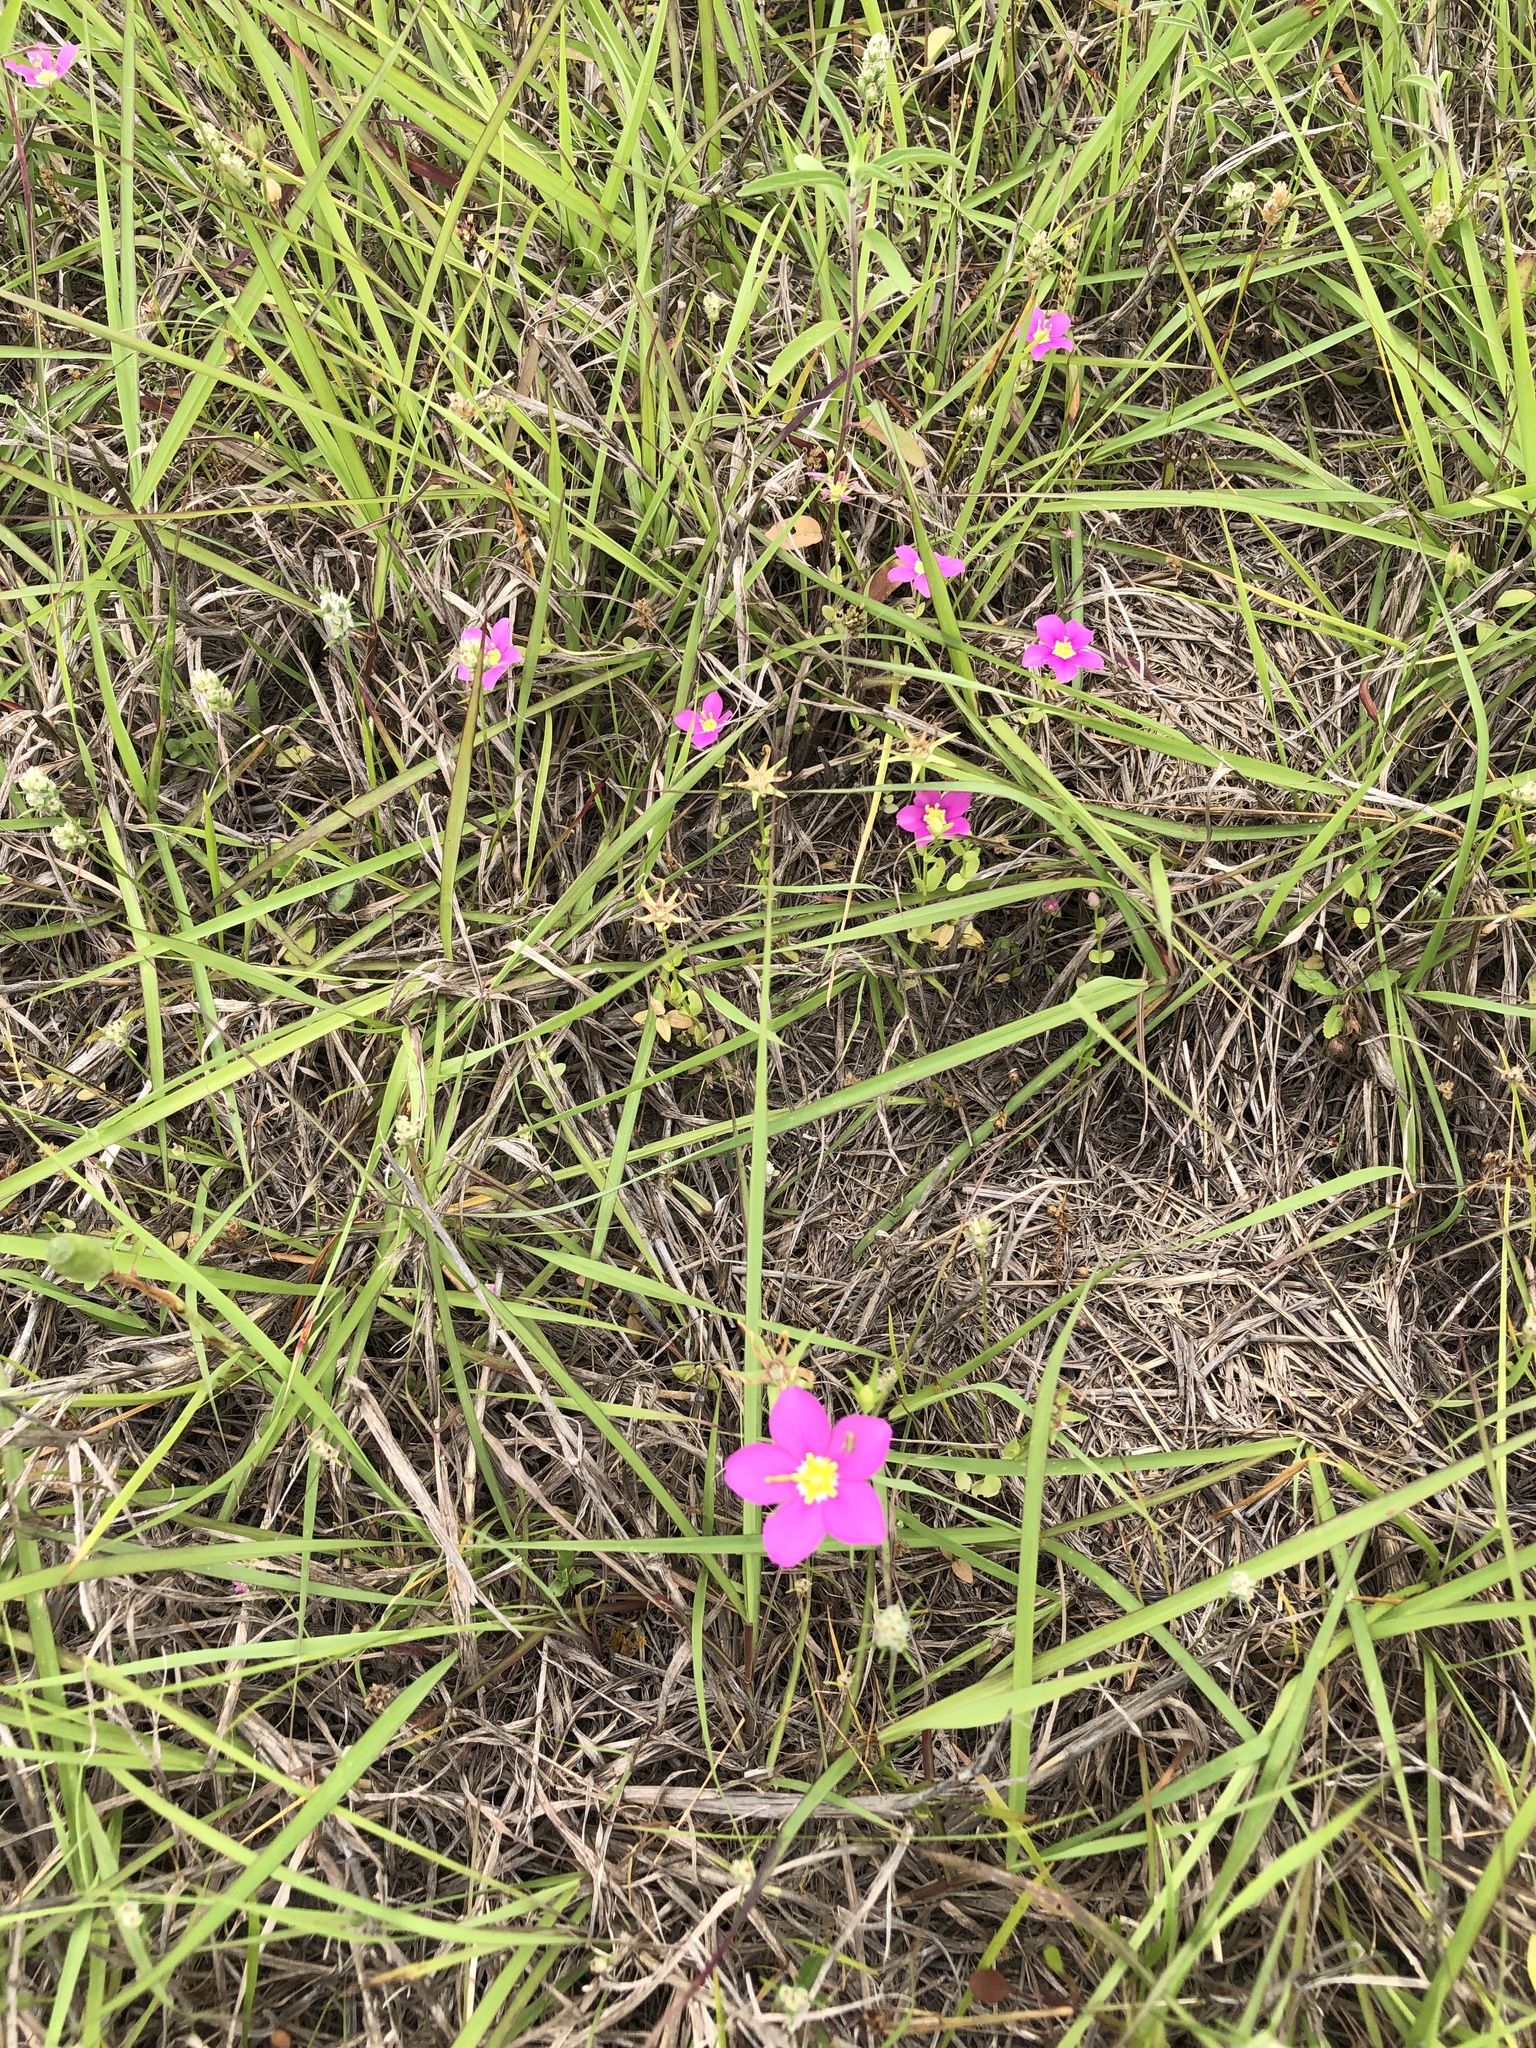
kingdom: Plantae
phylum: Tracheophyta
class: Magnoliopsida
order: Gentianales
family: Gentianaceae
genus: Sabatia
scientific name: Sabatia campestris
